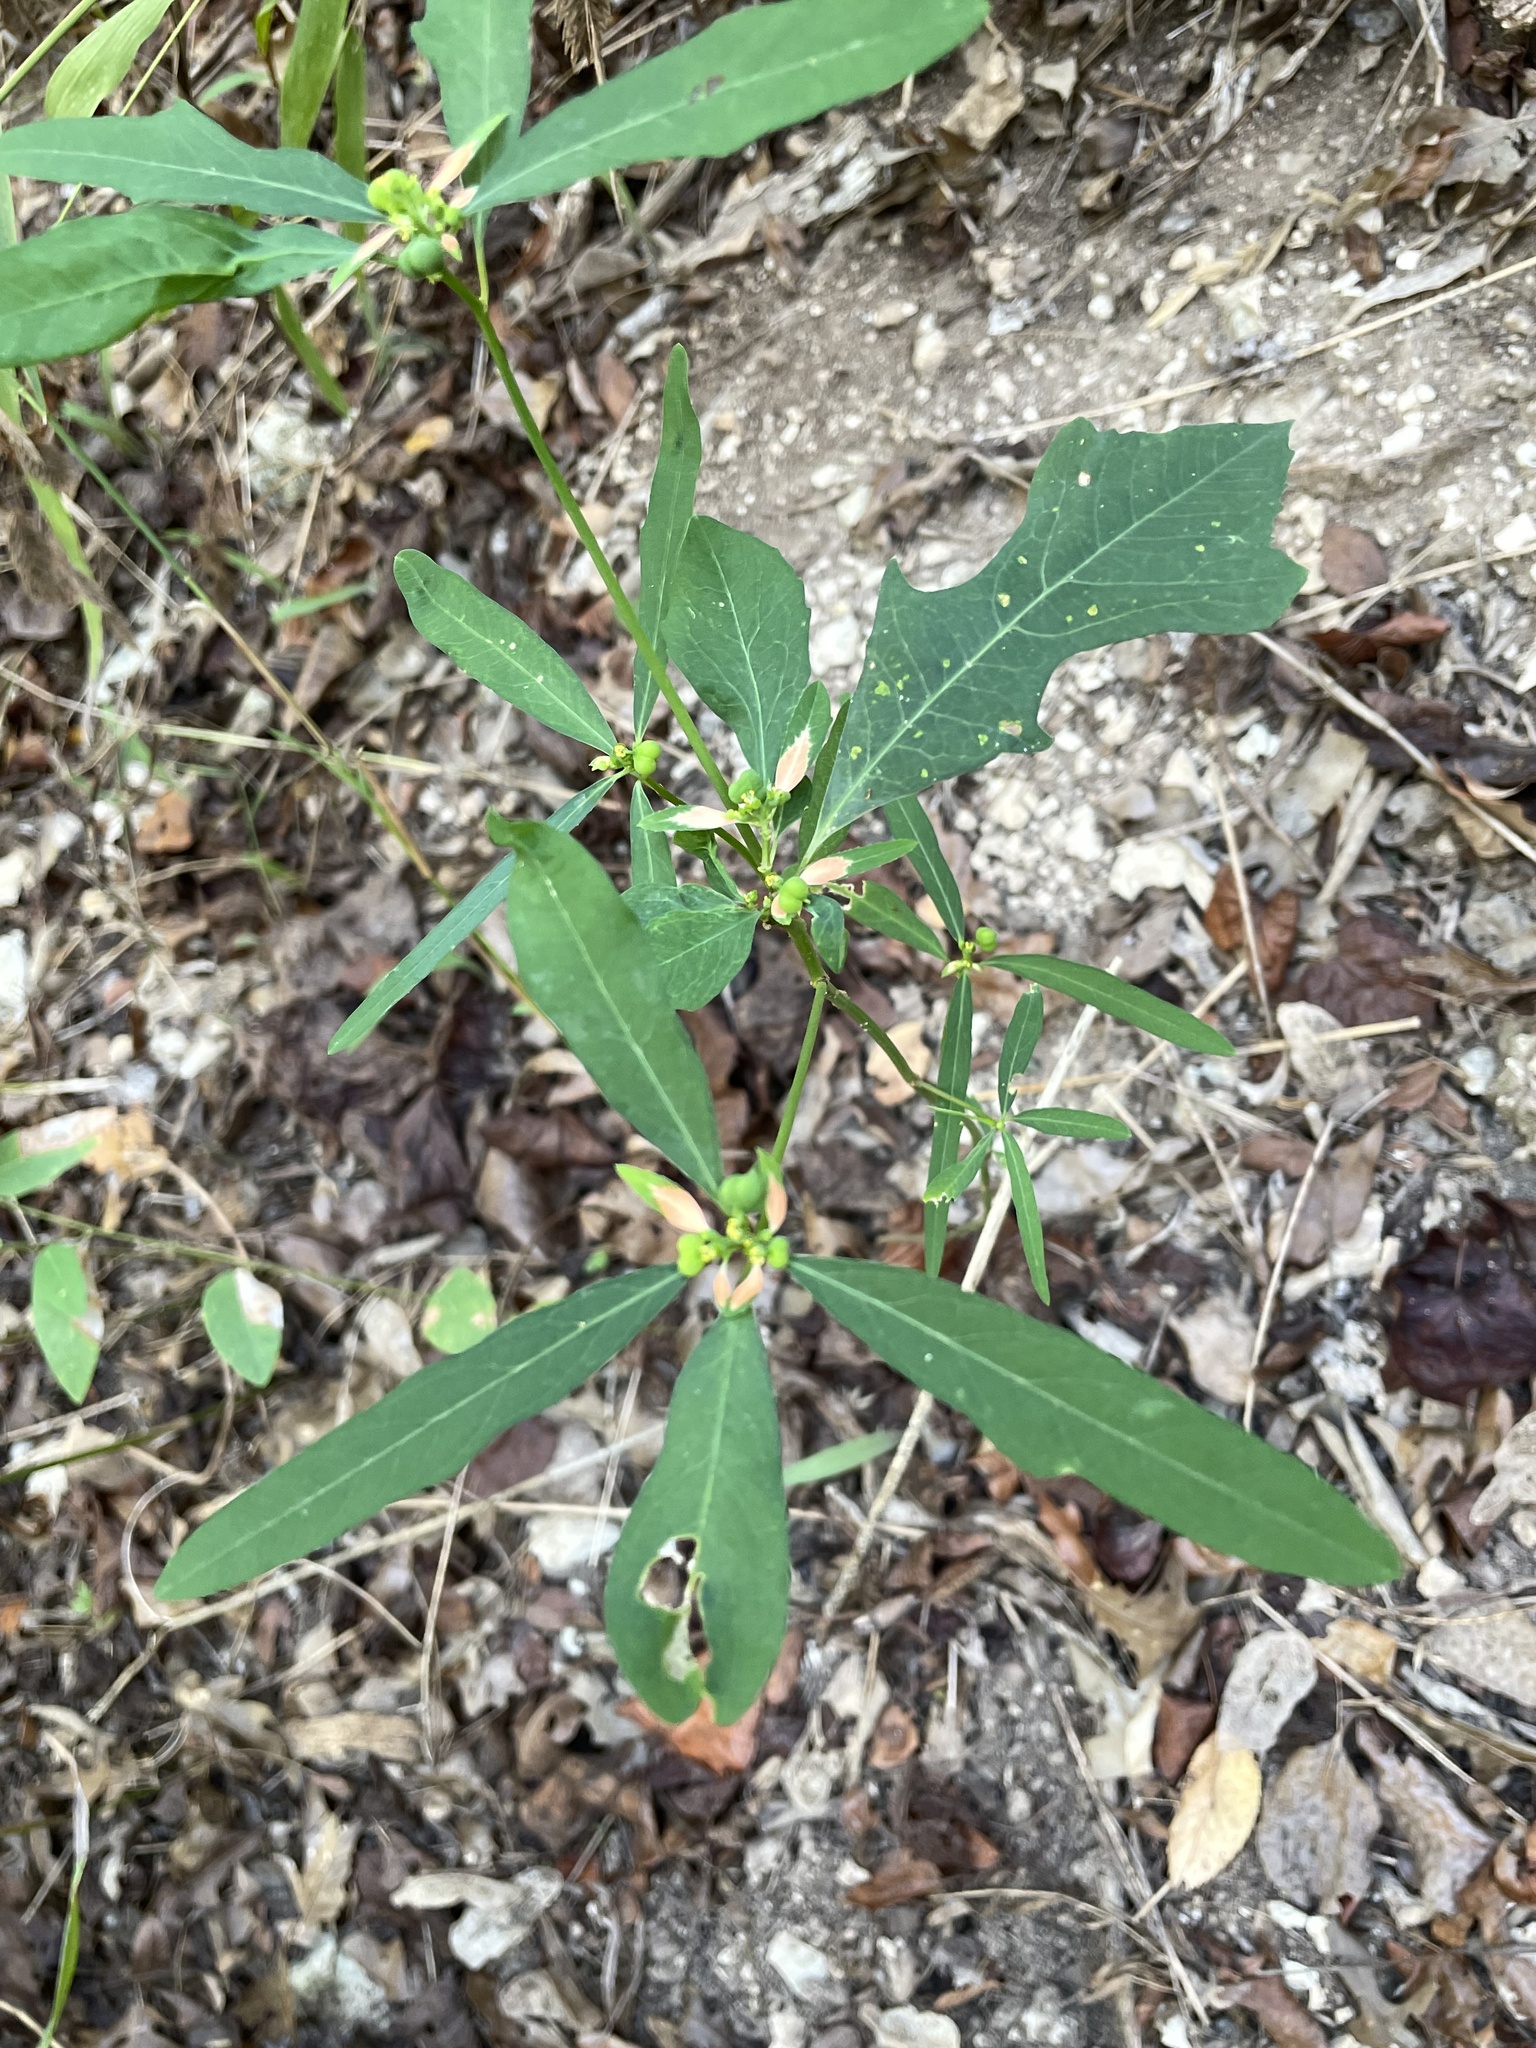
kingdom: Plantae
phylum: Tracheophyta
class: Magnoliopsida
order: Malpighiales
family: Euphorbiaceae
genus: Euphorbia
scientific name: Euphorbia heterophylla
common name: Mexican fireplant
